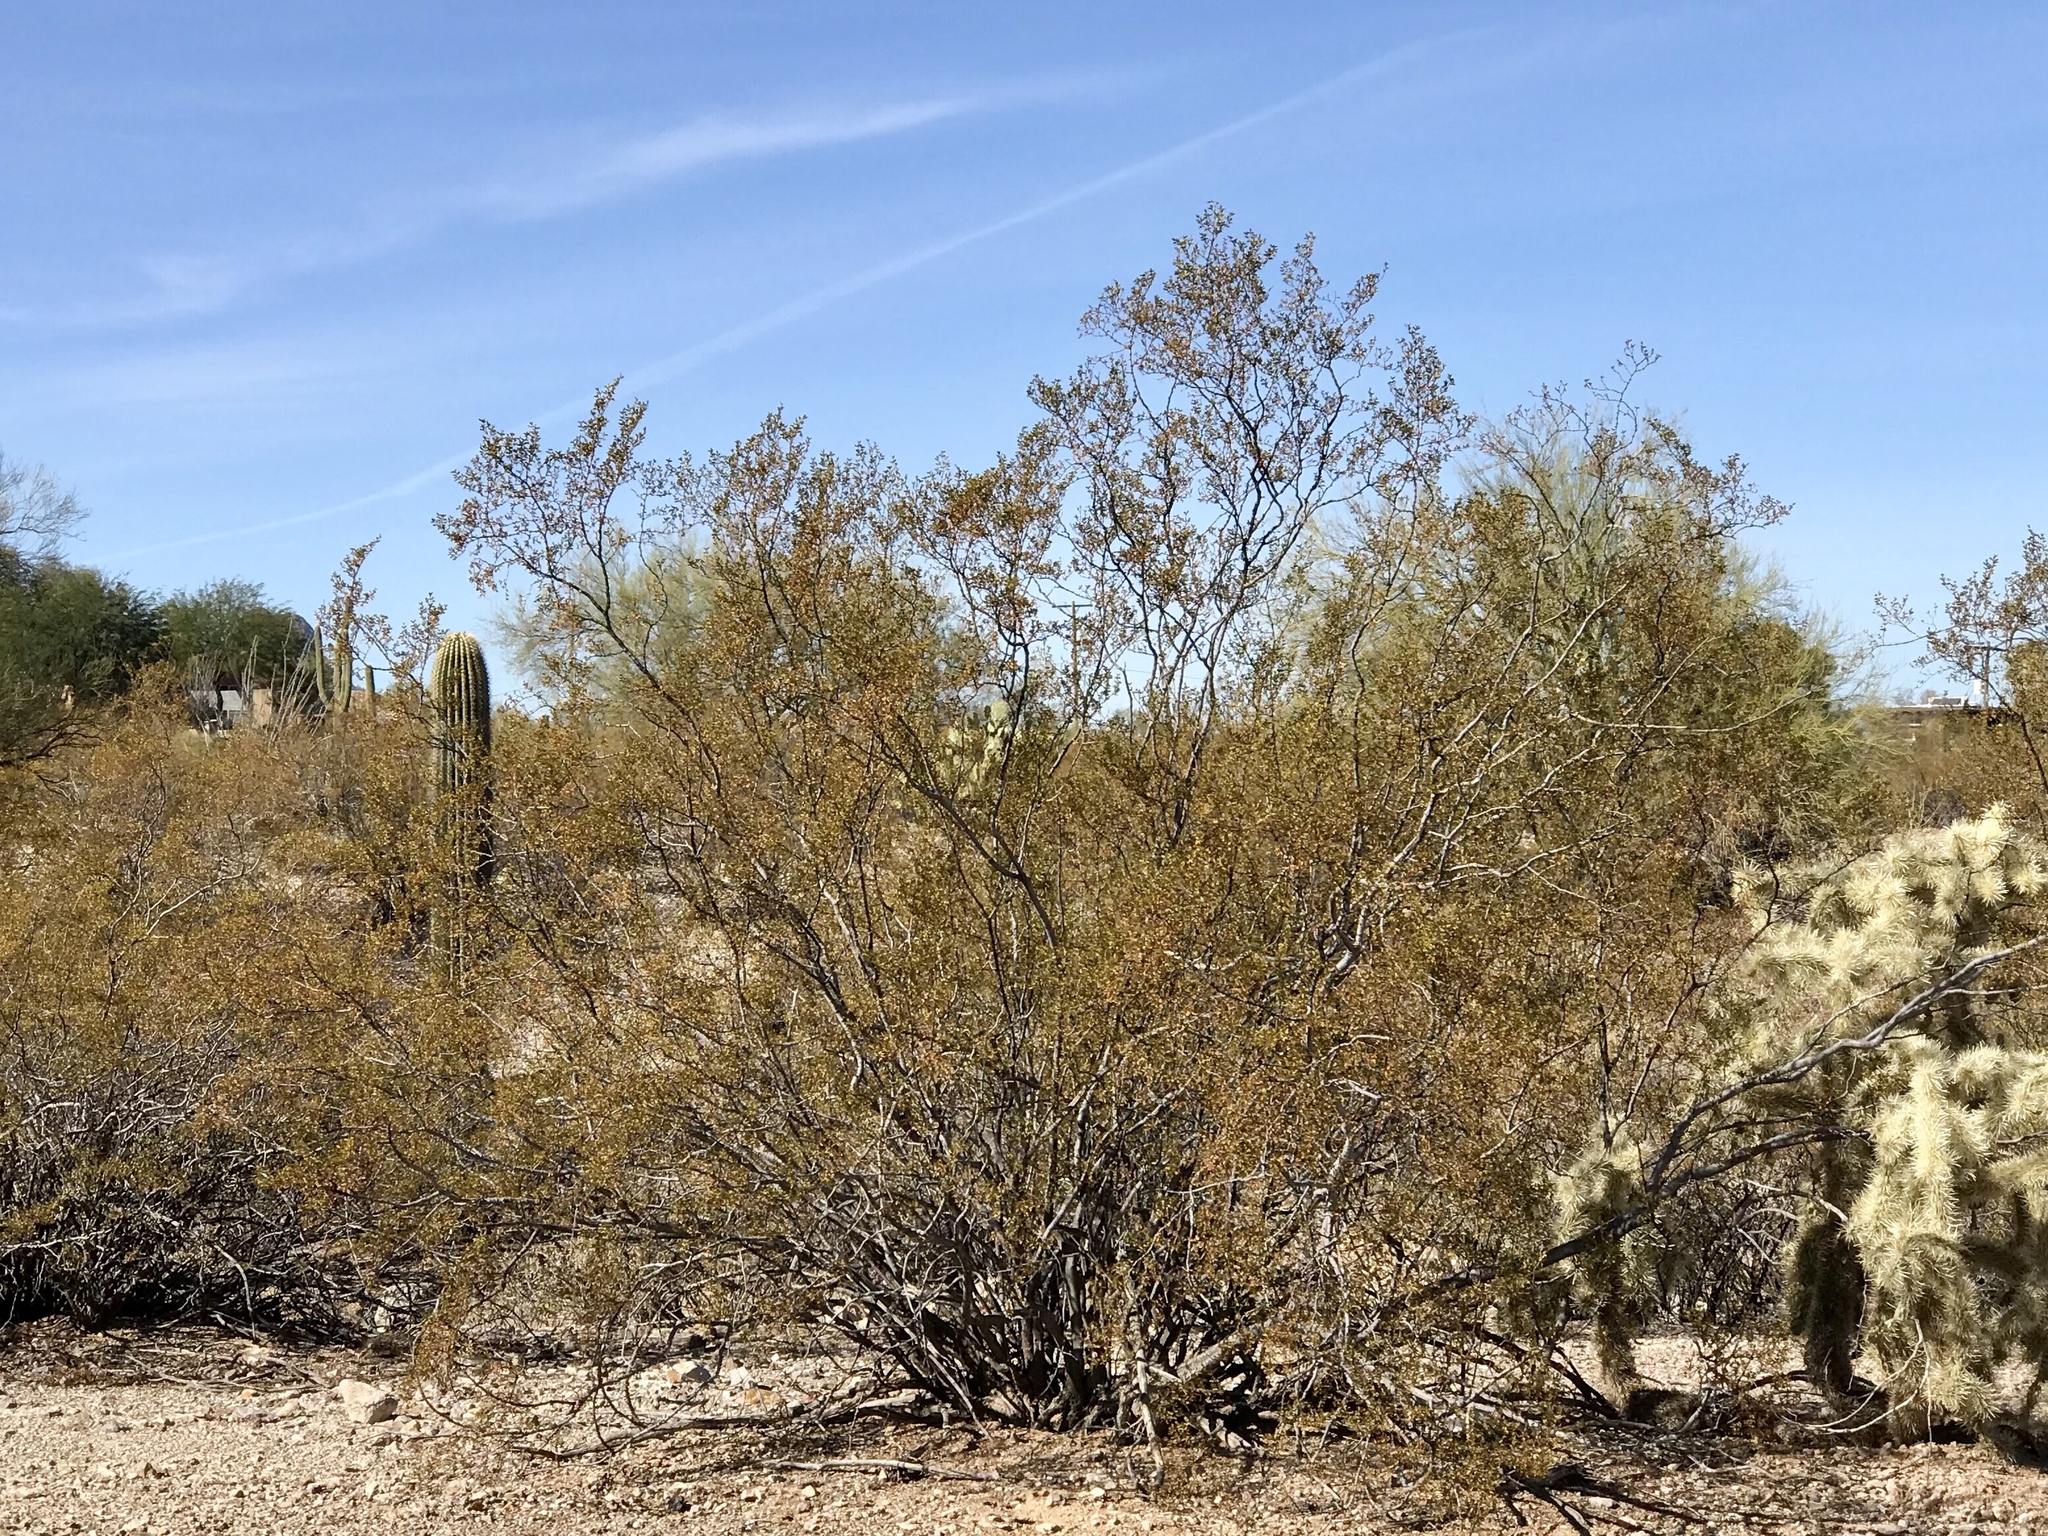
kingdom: Plantae
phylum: Tracheophyta
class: Magnoliopsida
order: Zygophyllales
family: Zygophyllaceae
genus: Larrea
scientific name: Larrea tridentata
